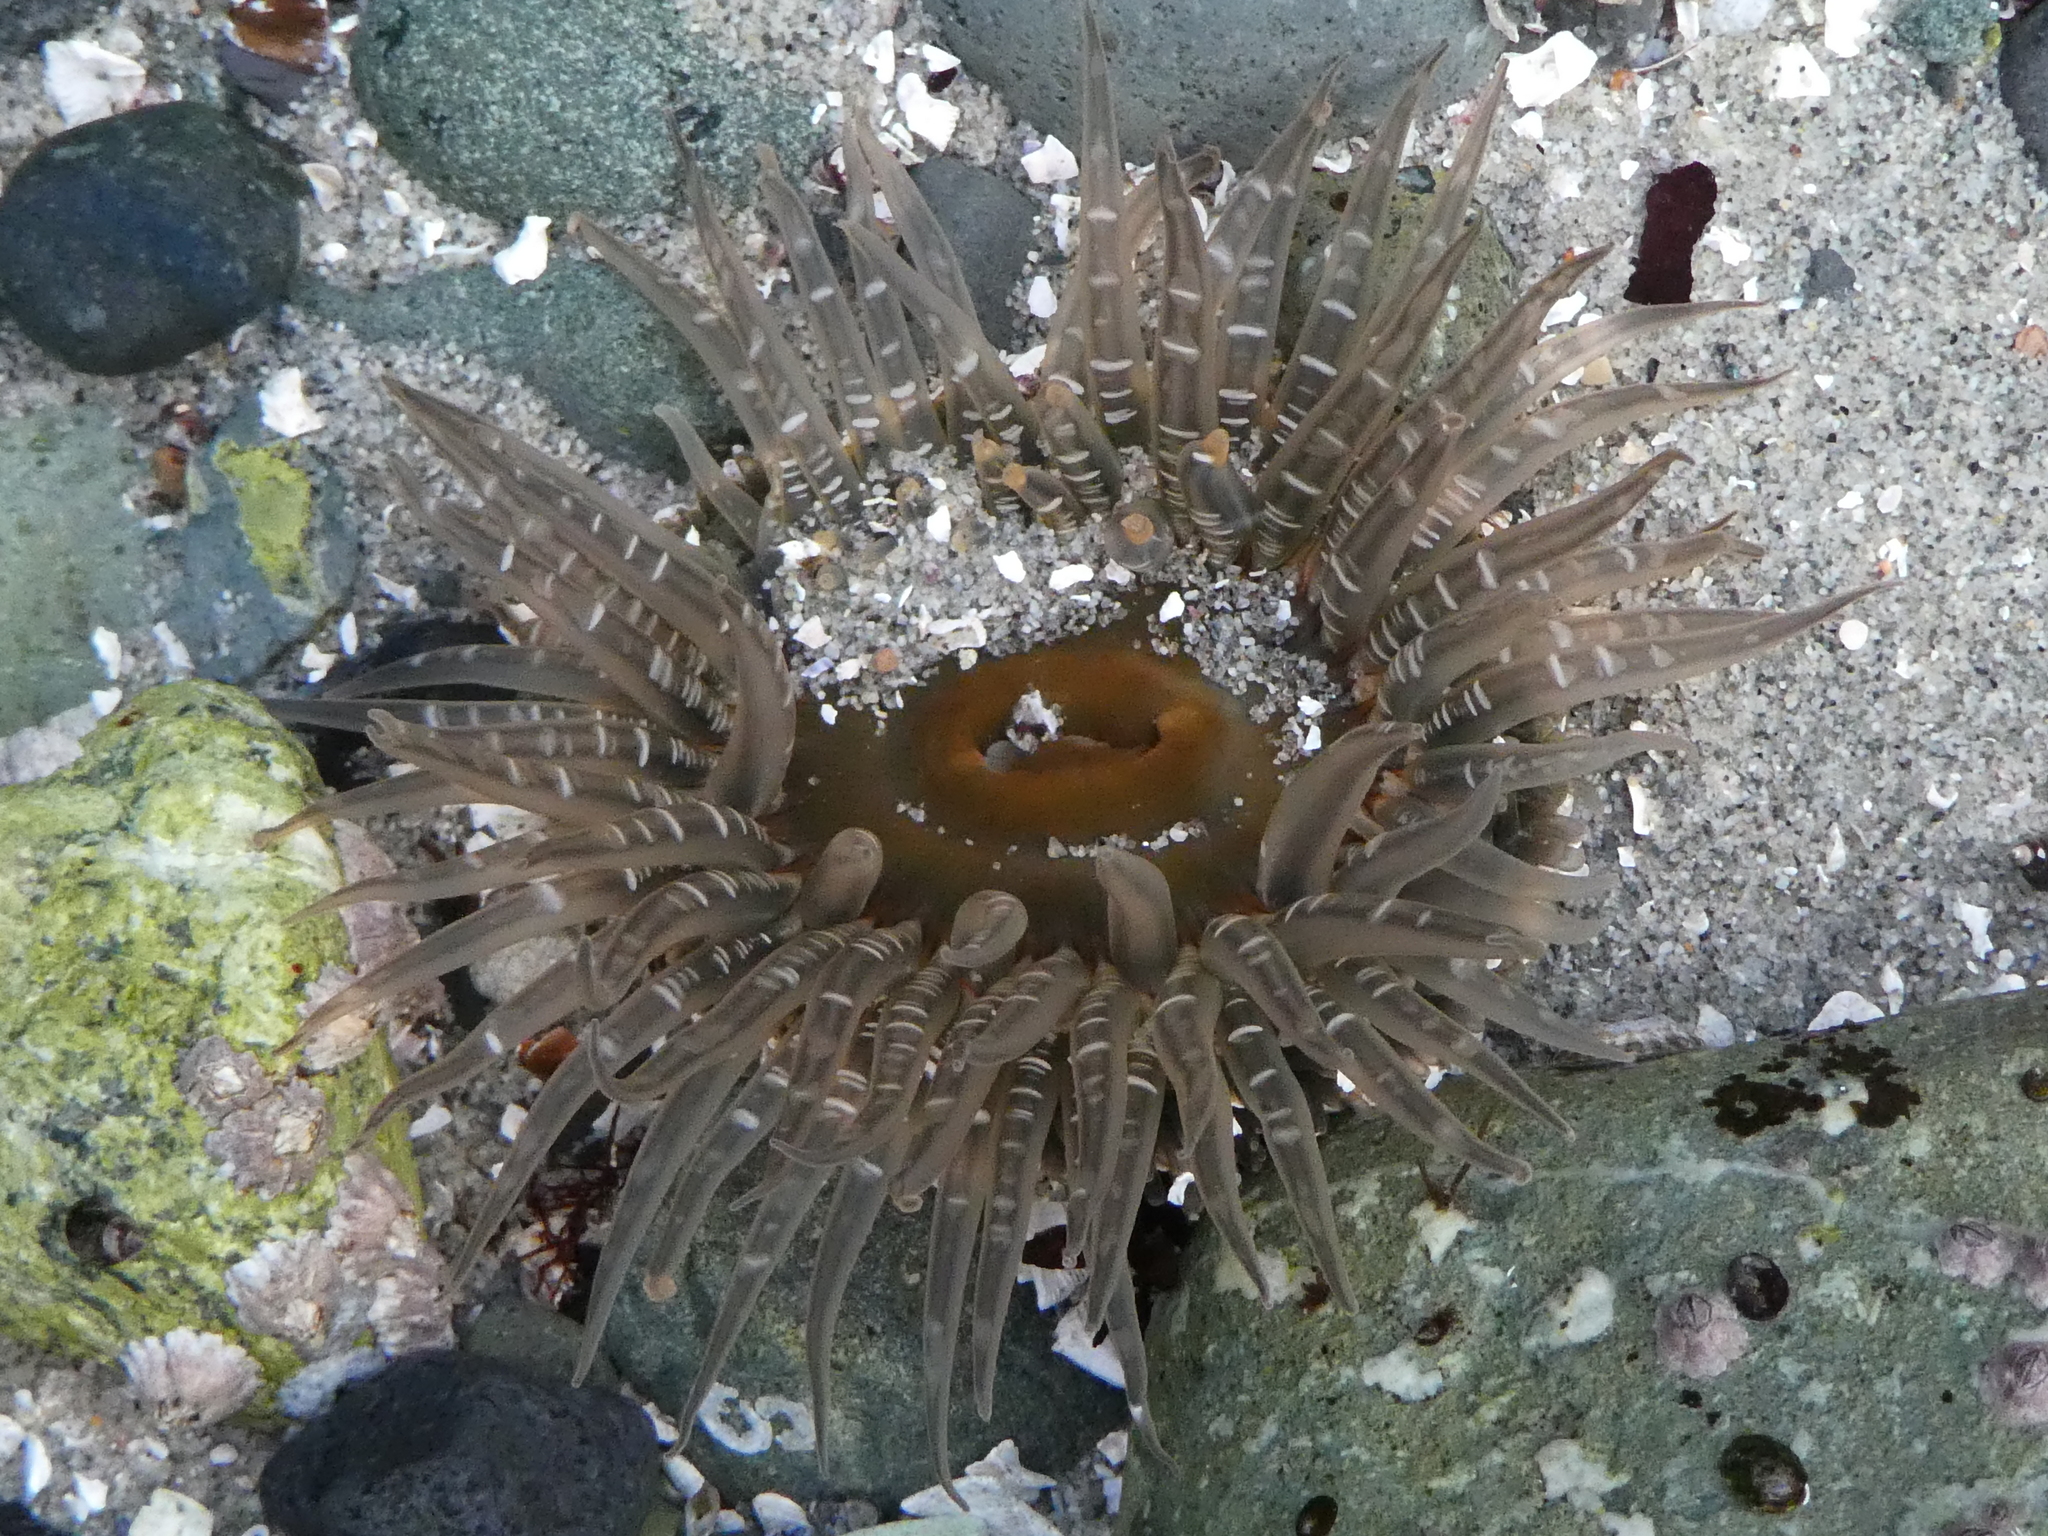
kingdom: Animalia
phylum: Cnidaria
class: Anthozoa
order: Actiniaria
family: Actiniidae
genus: Anthopleura
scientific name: Anthopleura artemisia
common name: Buried sea anemone
